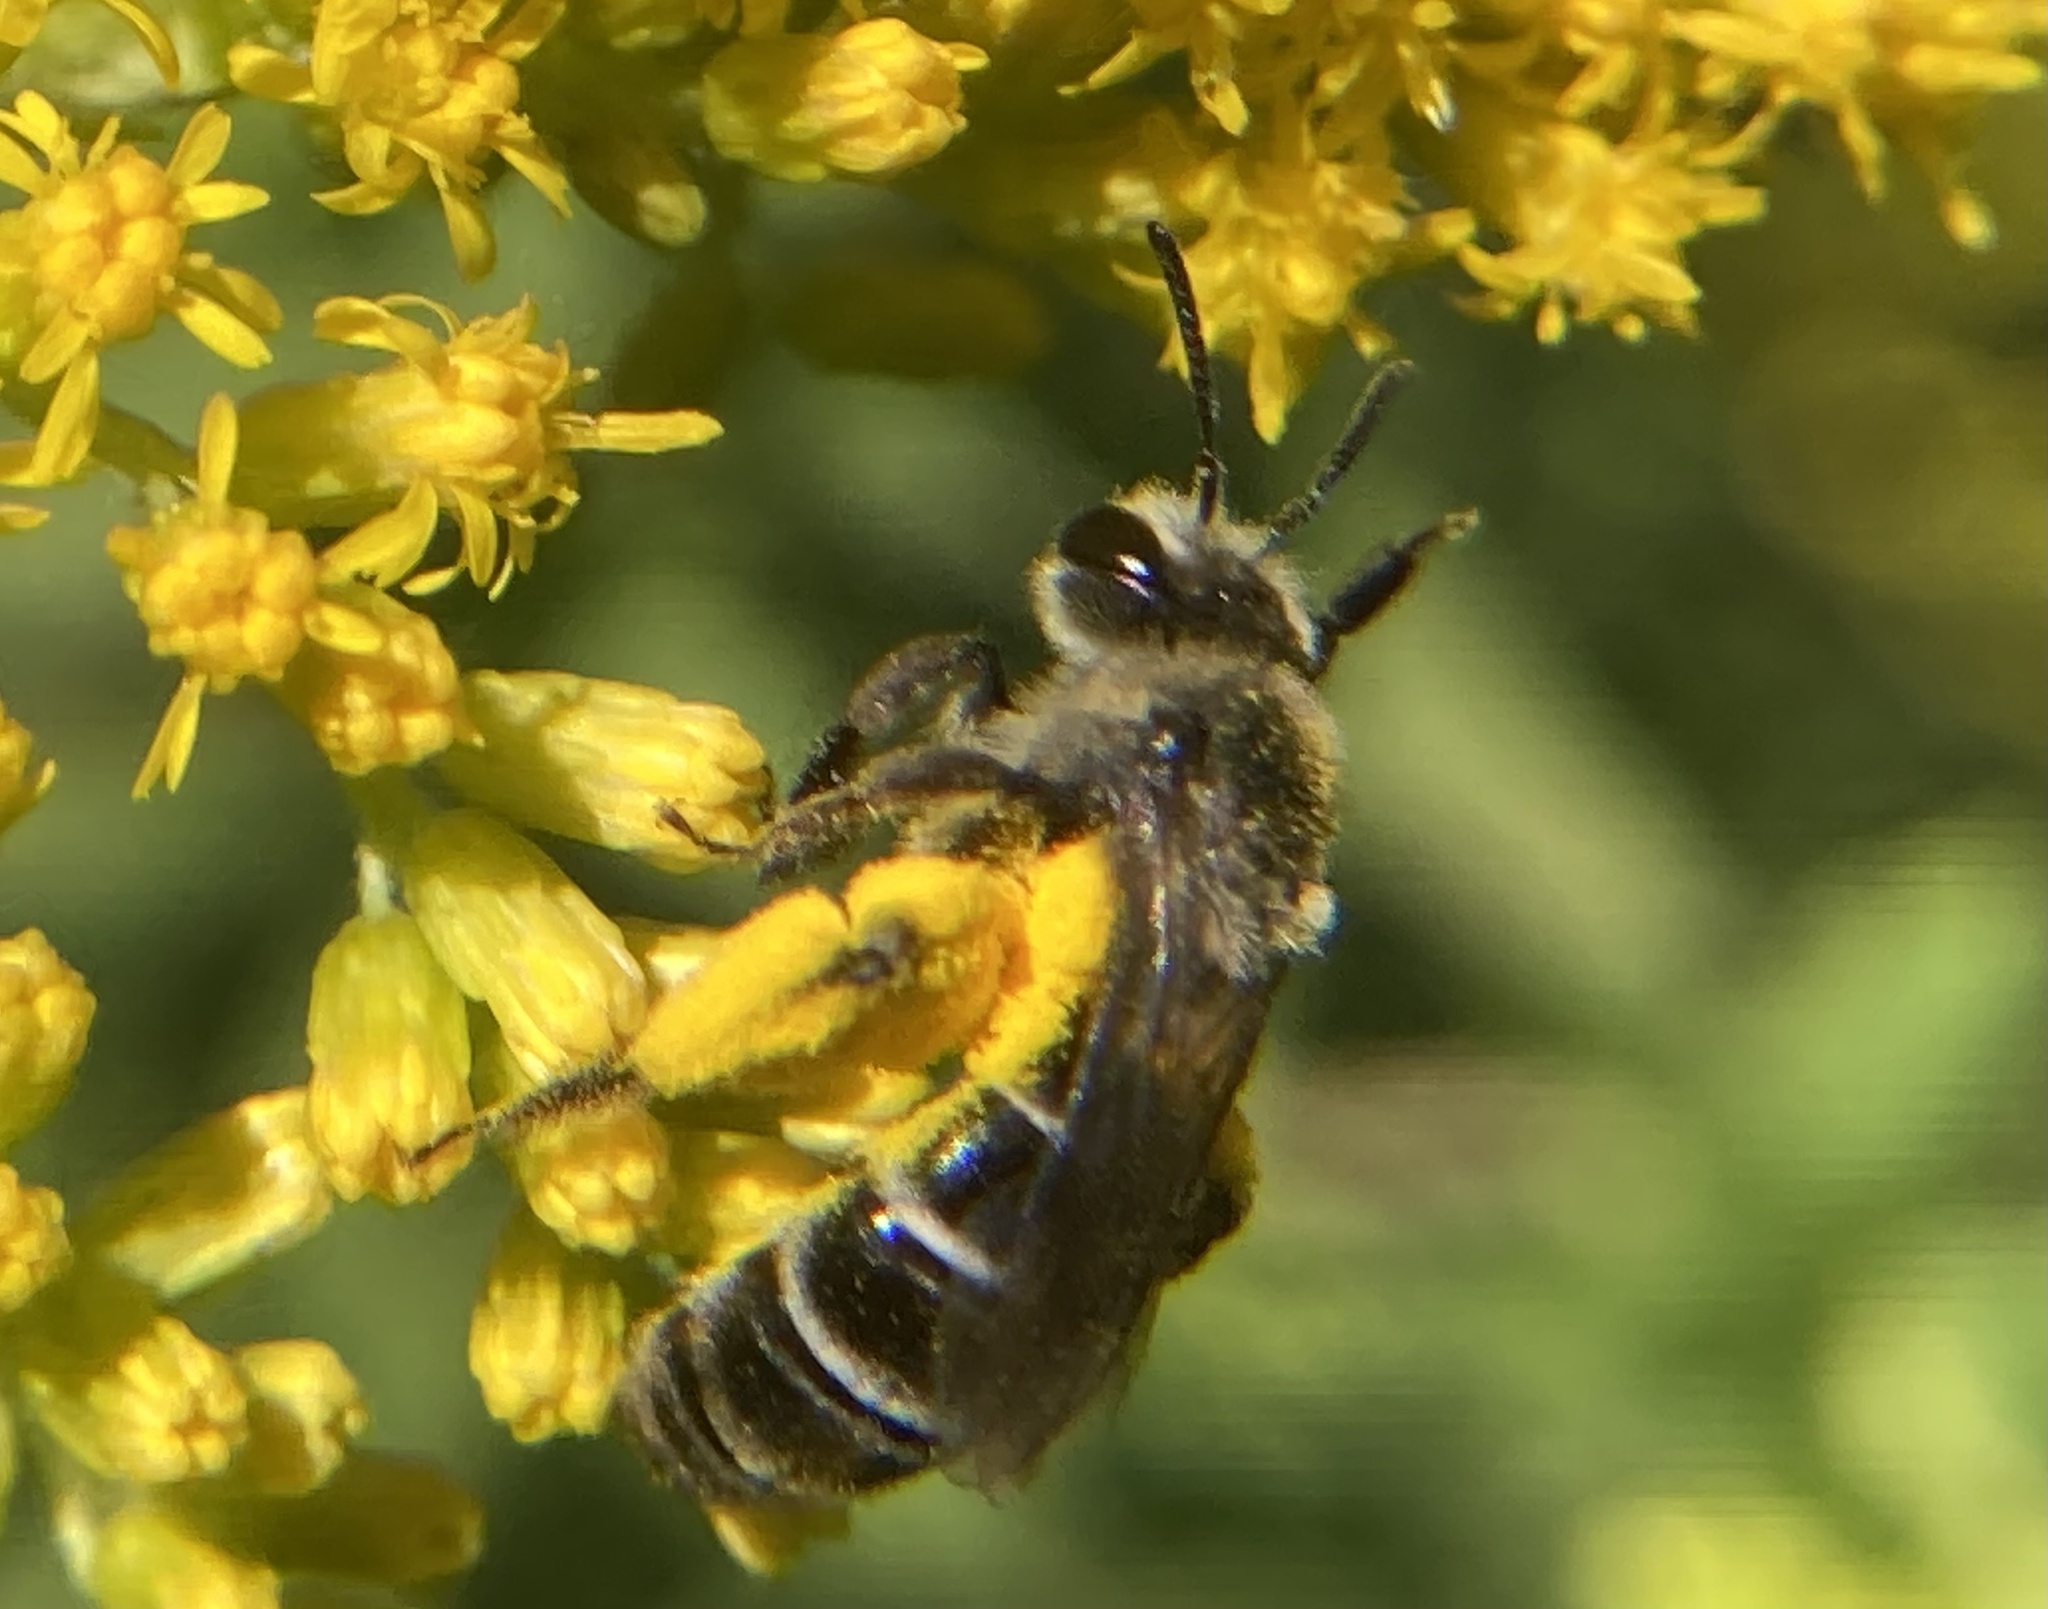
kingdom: Animalia
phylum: Arthropoda
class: Insecta
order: Hymenoptera
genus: Callandrena
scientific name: Callandrena
